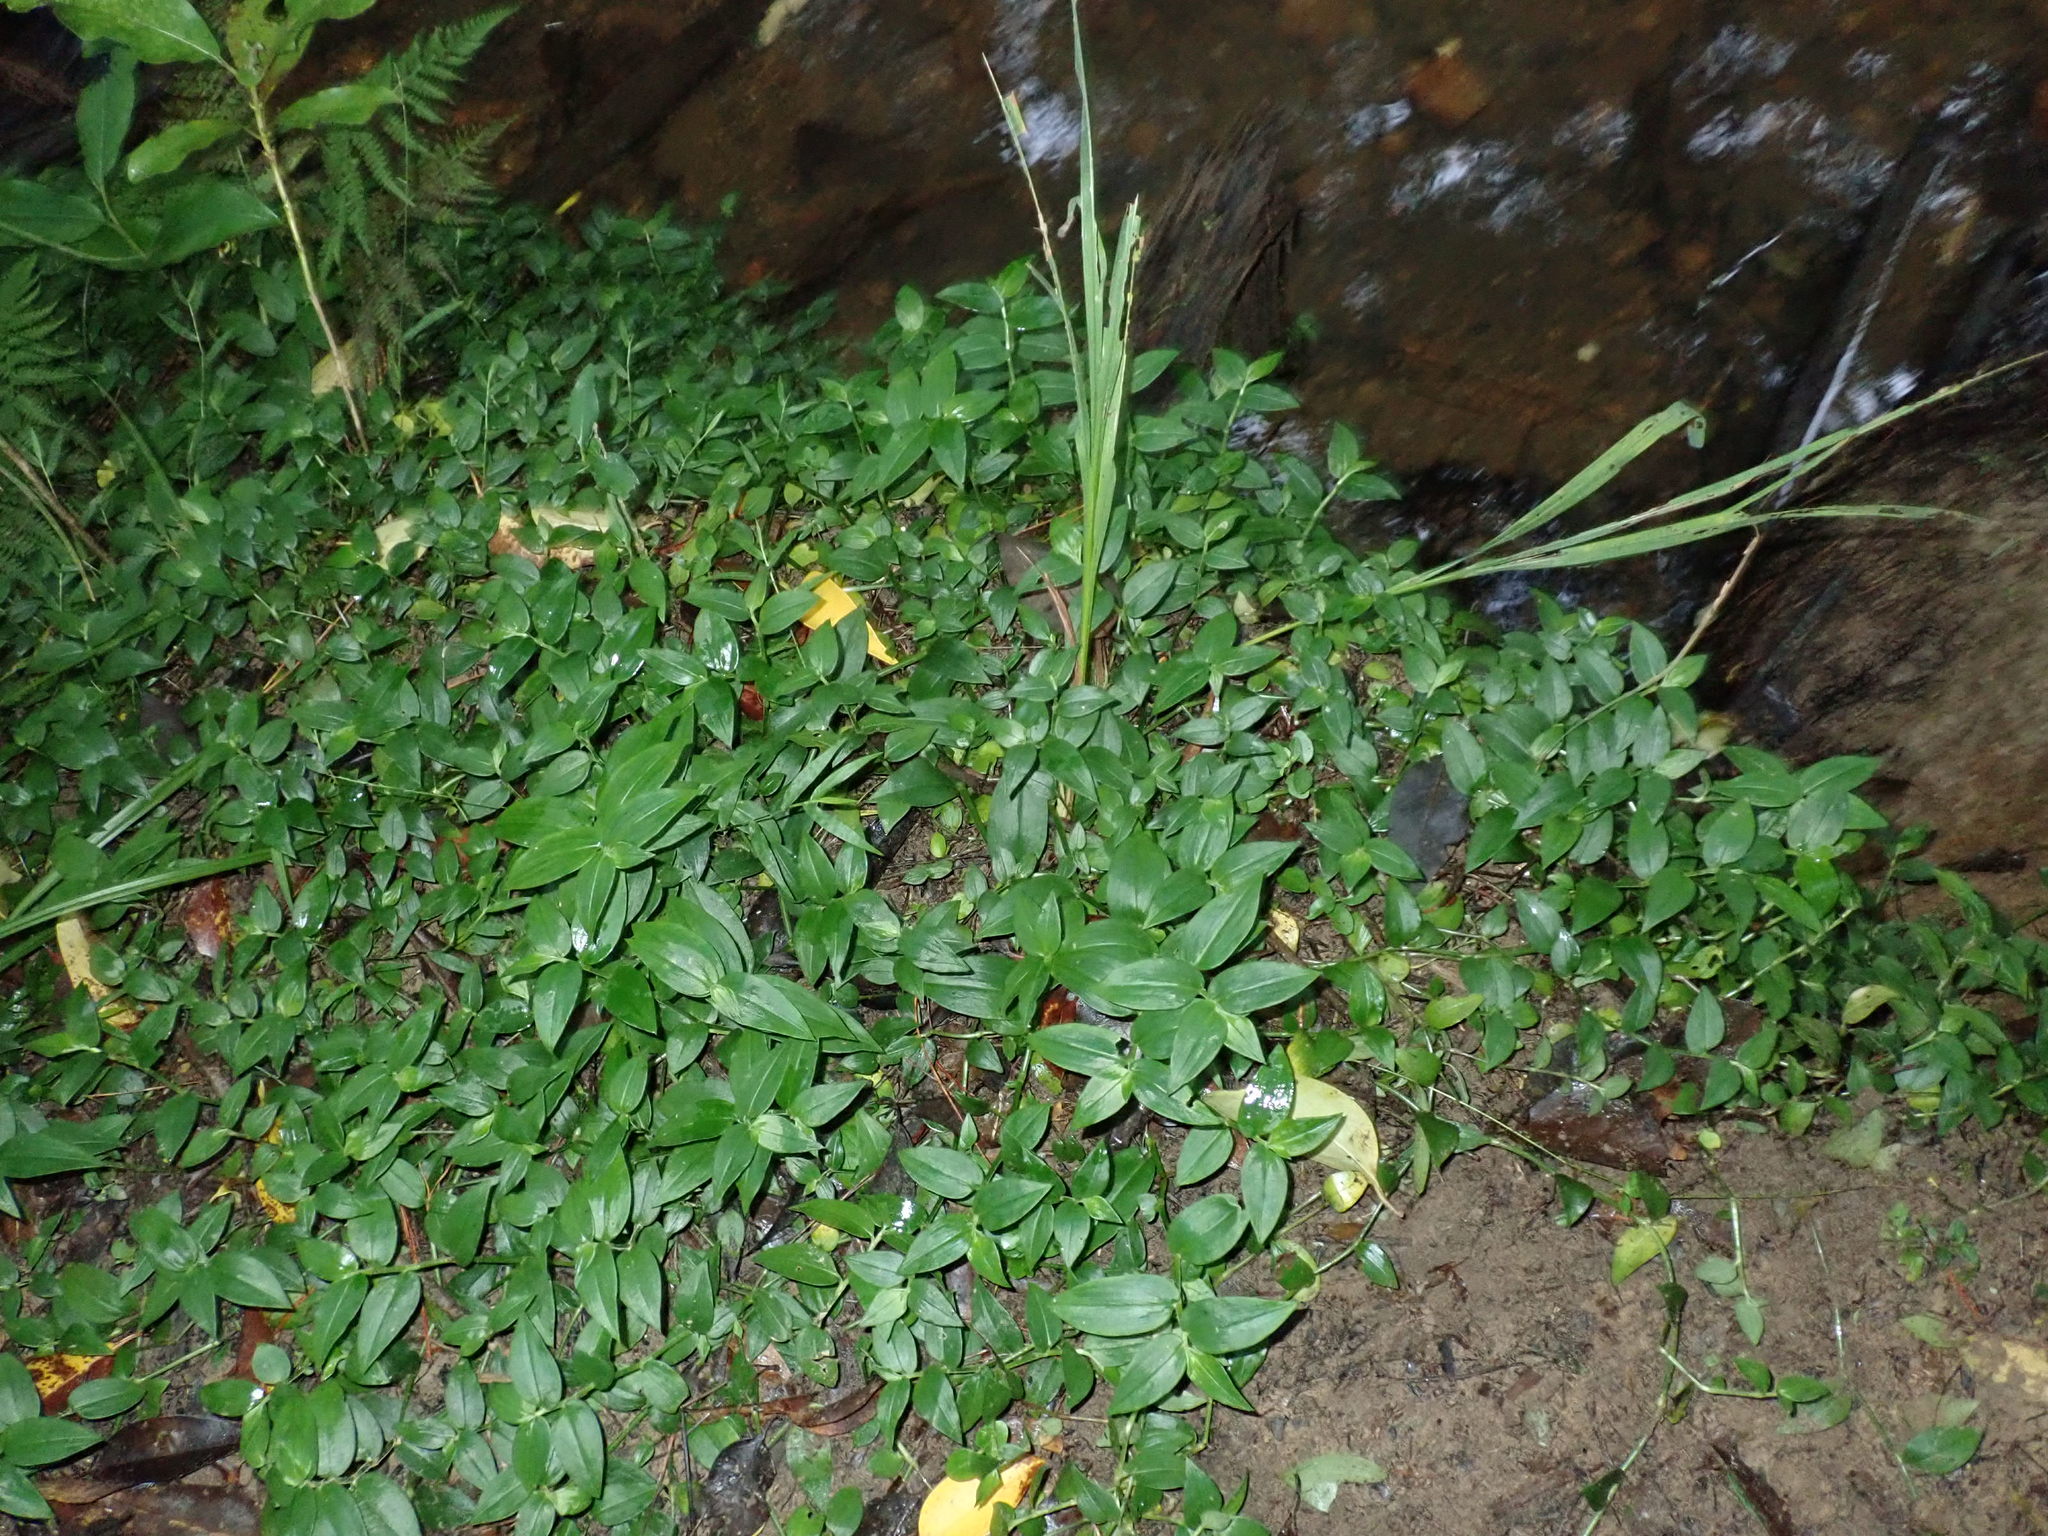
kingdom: Plantae
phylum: Tracheophyta
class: Liliopsida
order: Commelinales
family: Commelinaceae
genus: Tradescantia
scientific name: Tradescantia fluminensis
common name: Wandering-jew
